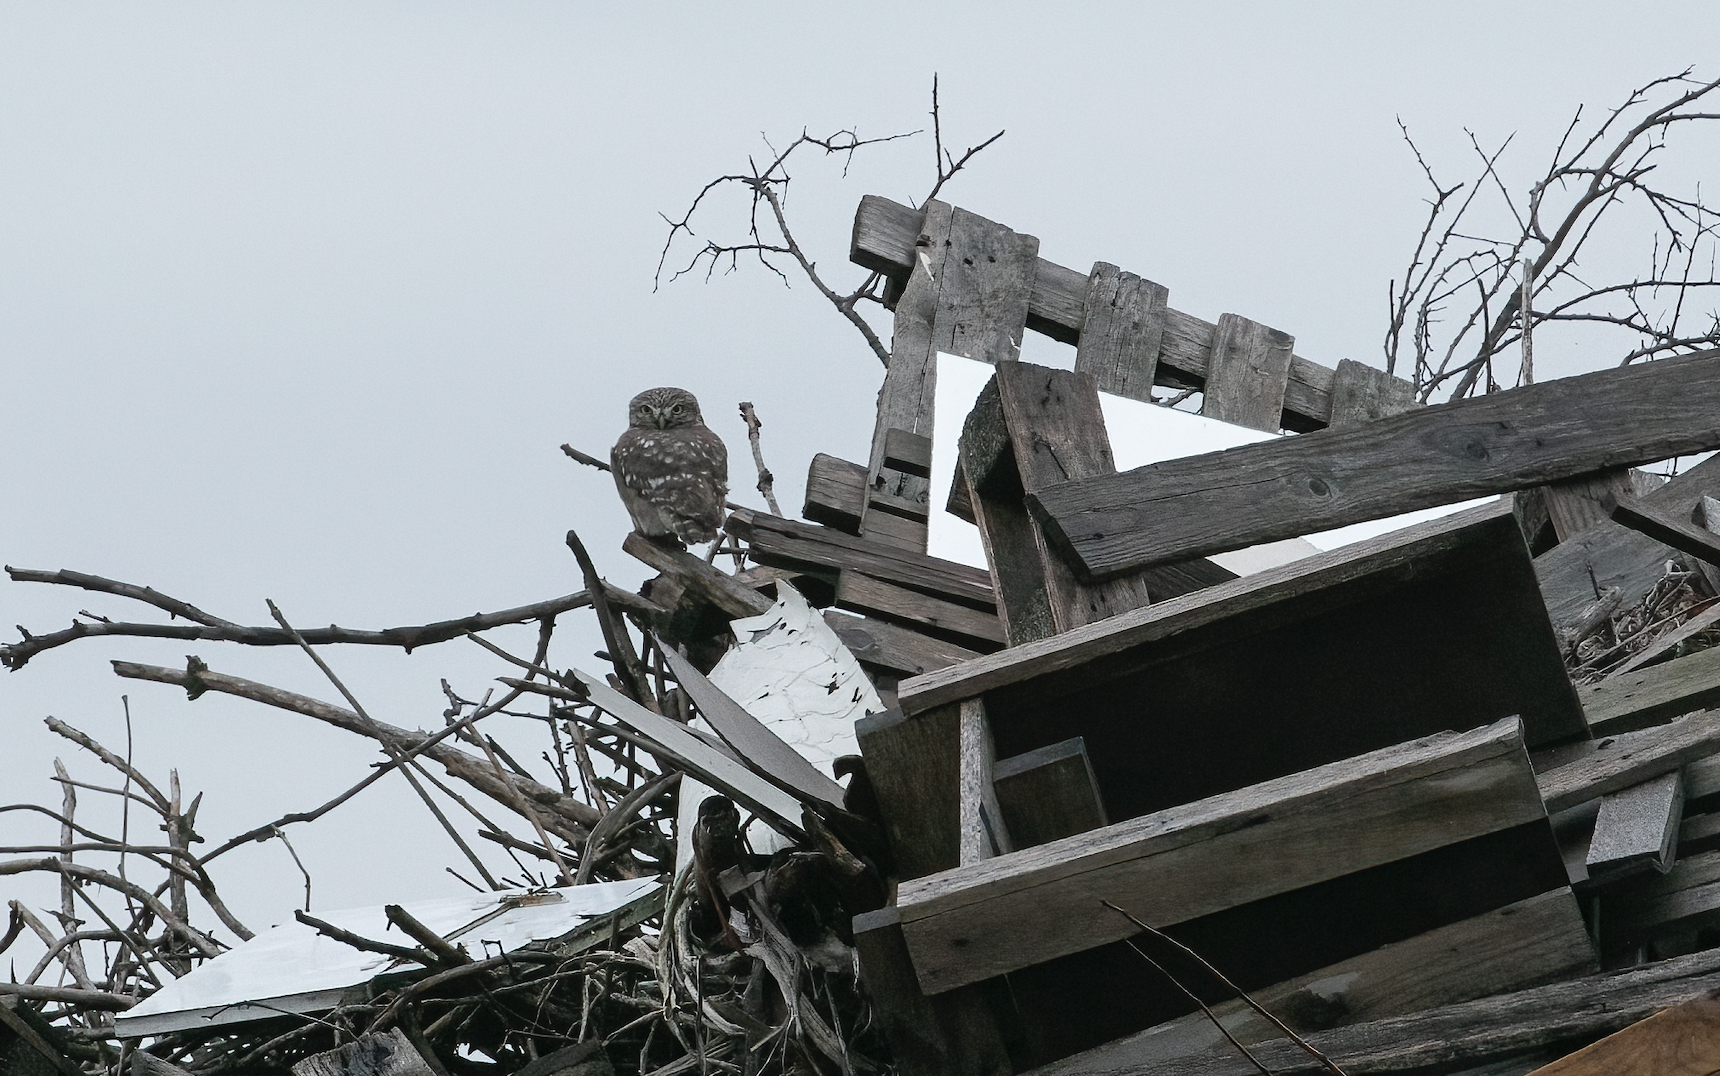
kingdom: Animalia
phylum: Chordata
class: Aves
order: Strigiformes
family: Strigidae
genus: Athene
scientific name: Athene noctua
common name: Little owl
